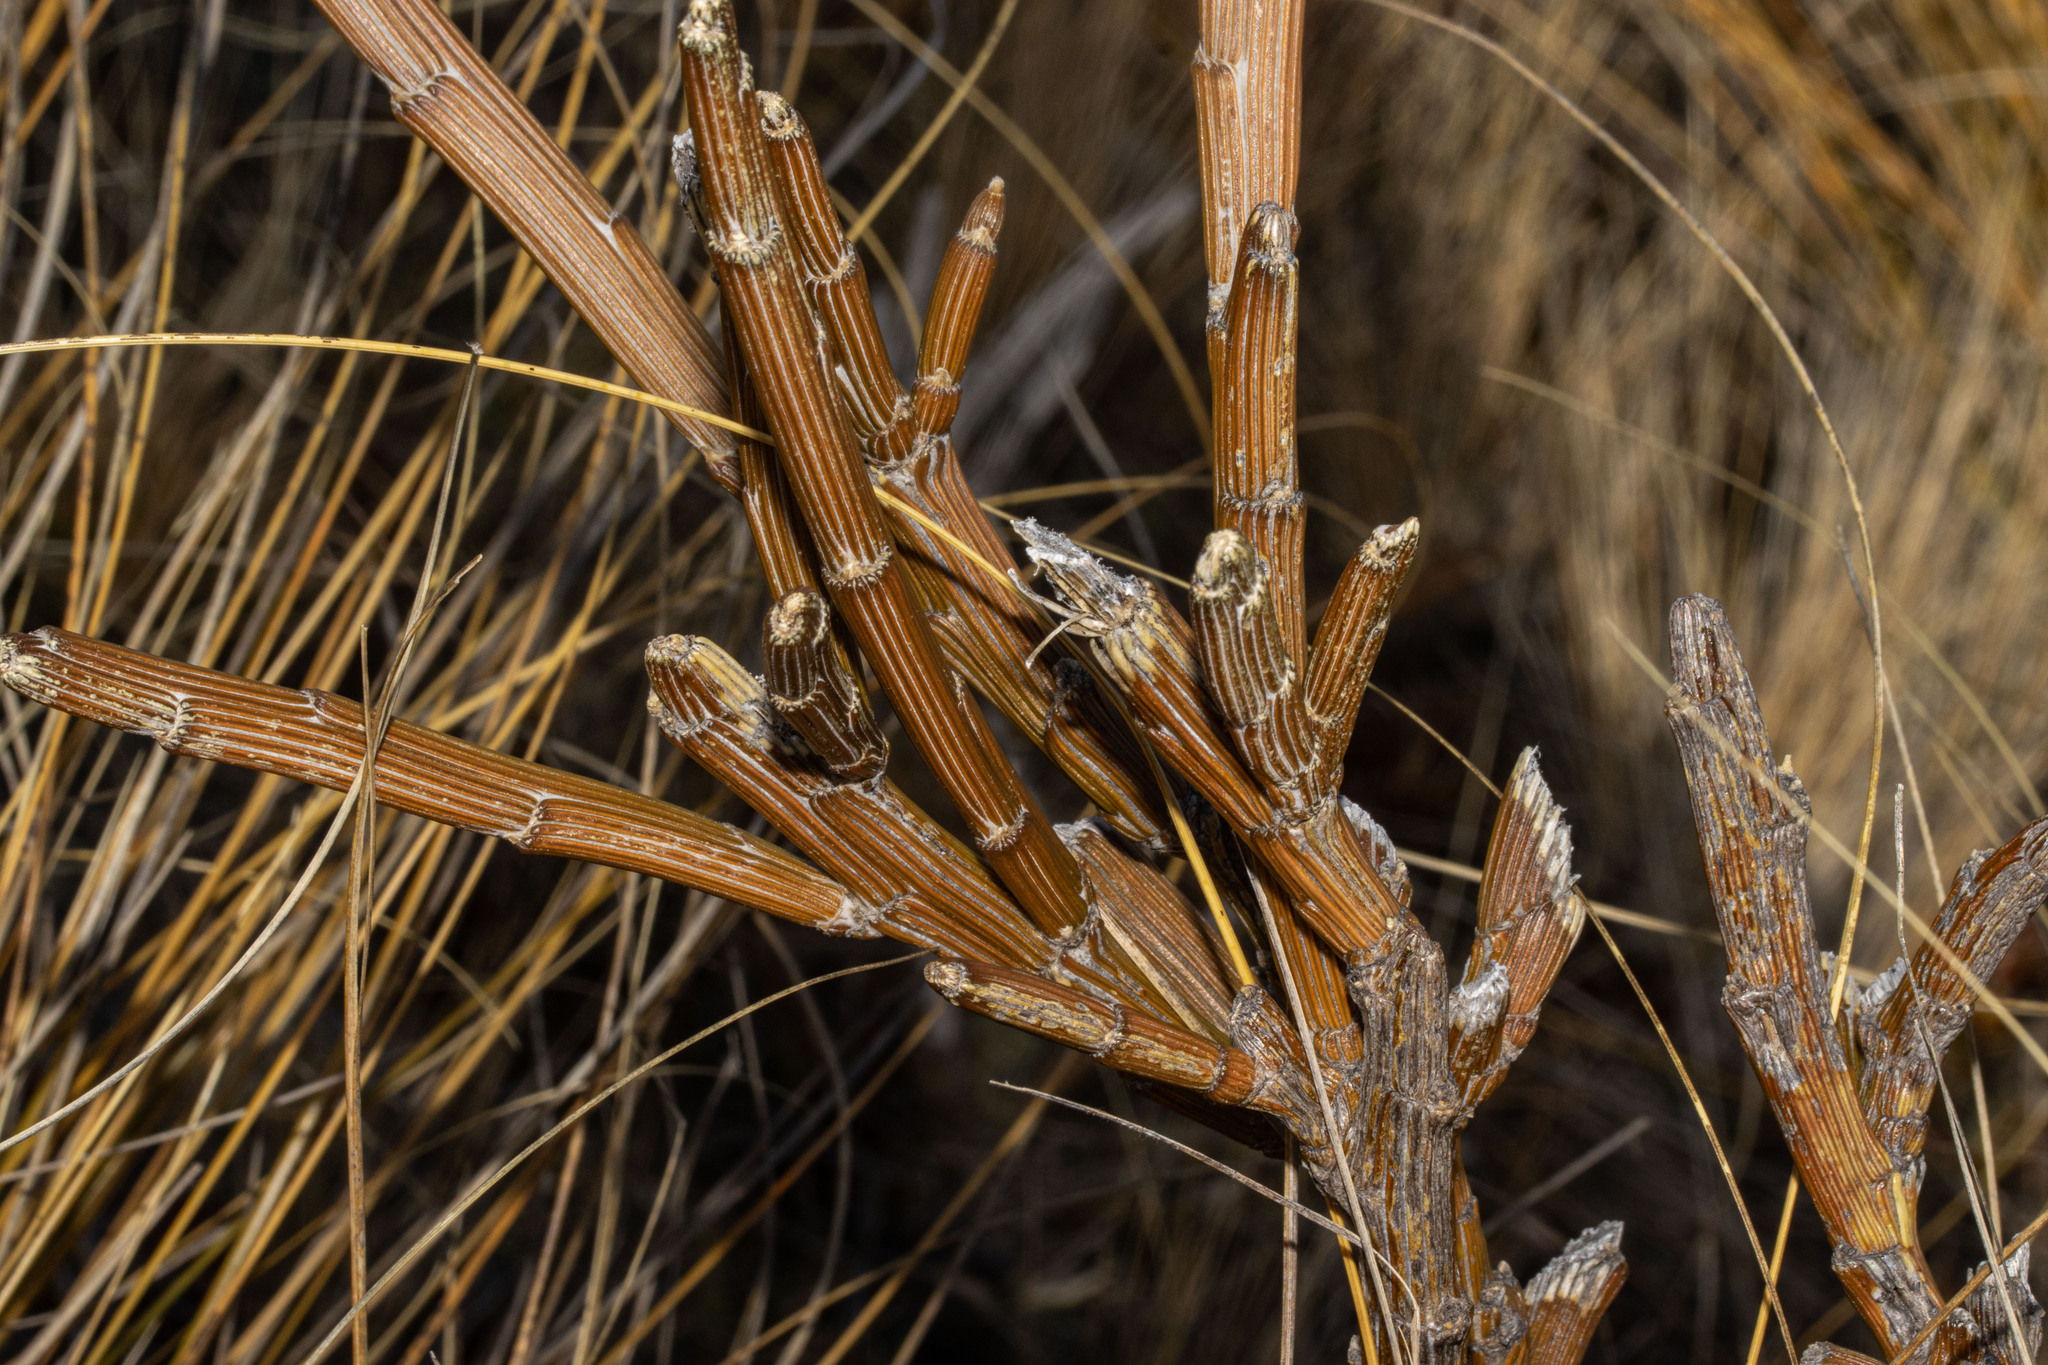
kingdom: Plantae
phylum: Tracheophyta
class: Magnoliopsida
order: Fabales
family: Fabaceae
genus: Carmichaelia
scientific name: Carmichaelia crassicaulis
